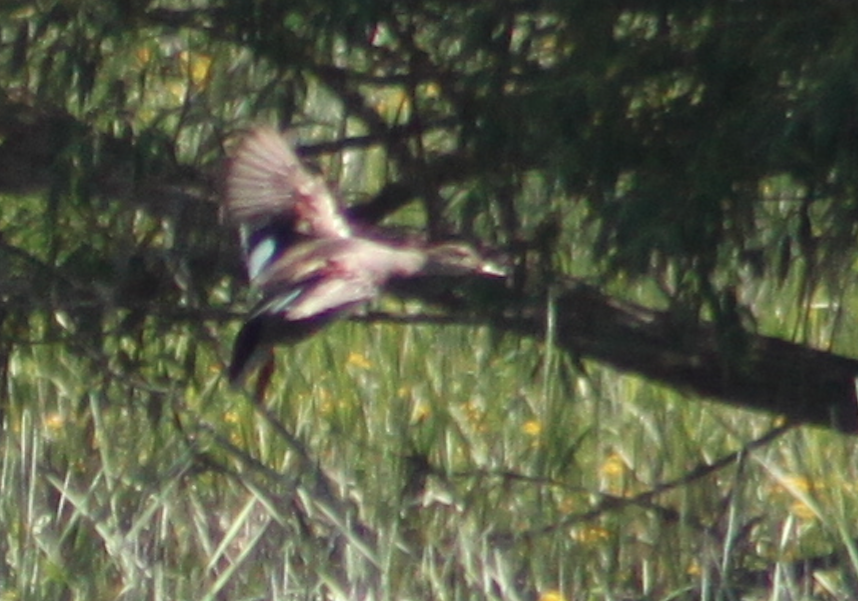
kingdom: Animalia
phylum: Chordata
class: Aves
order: Anseriformes
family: Anatidae
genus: Mareca
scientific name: Mareca strepera
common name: Gadwall
